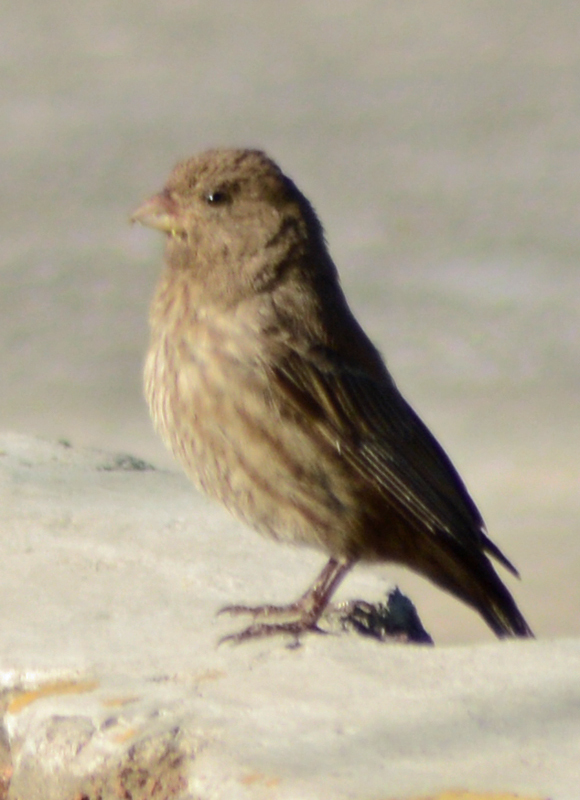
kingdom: Animalia
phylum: Chordata
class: Aves
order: Passeriformes
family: Fringillidae
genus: Haemorhous
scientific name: Haemorhous mexicanus
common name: House finch
